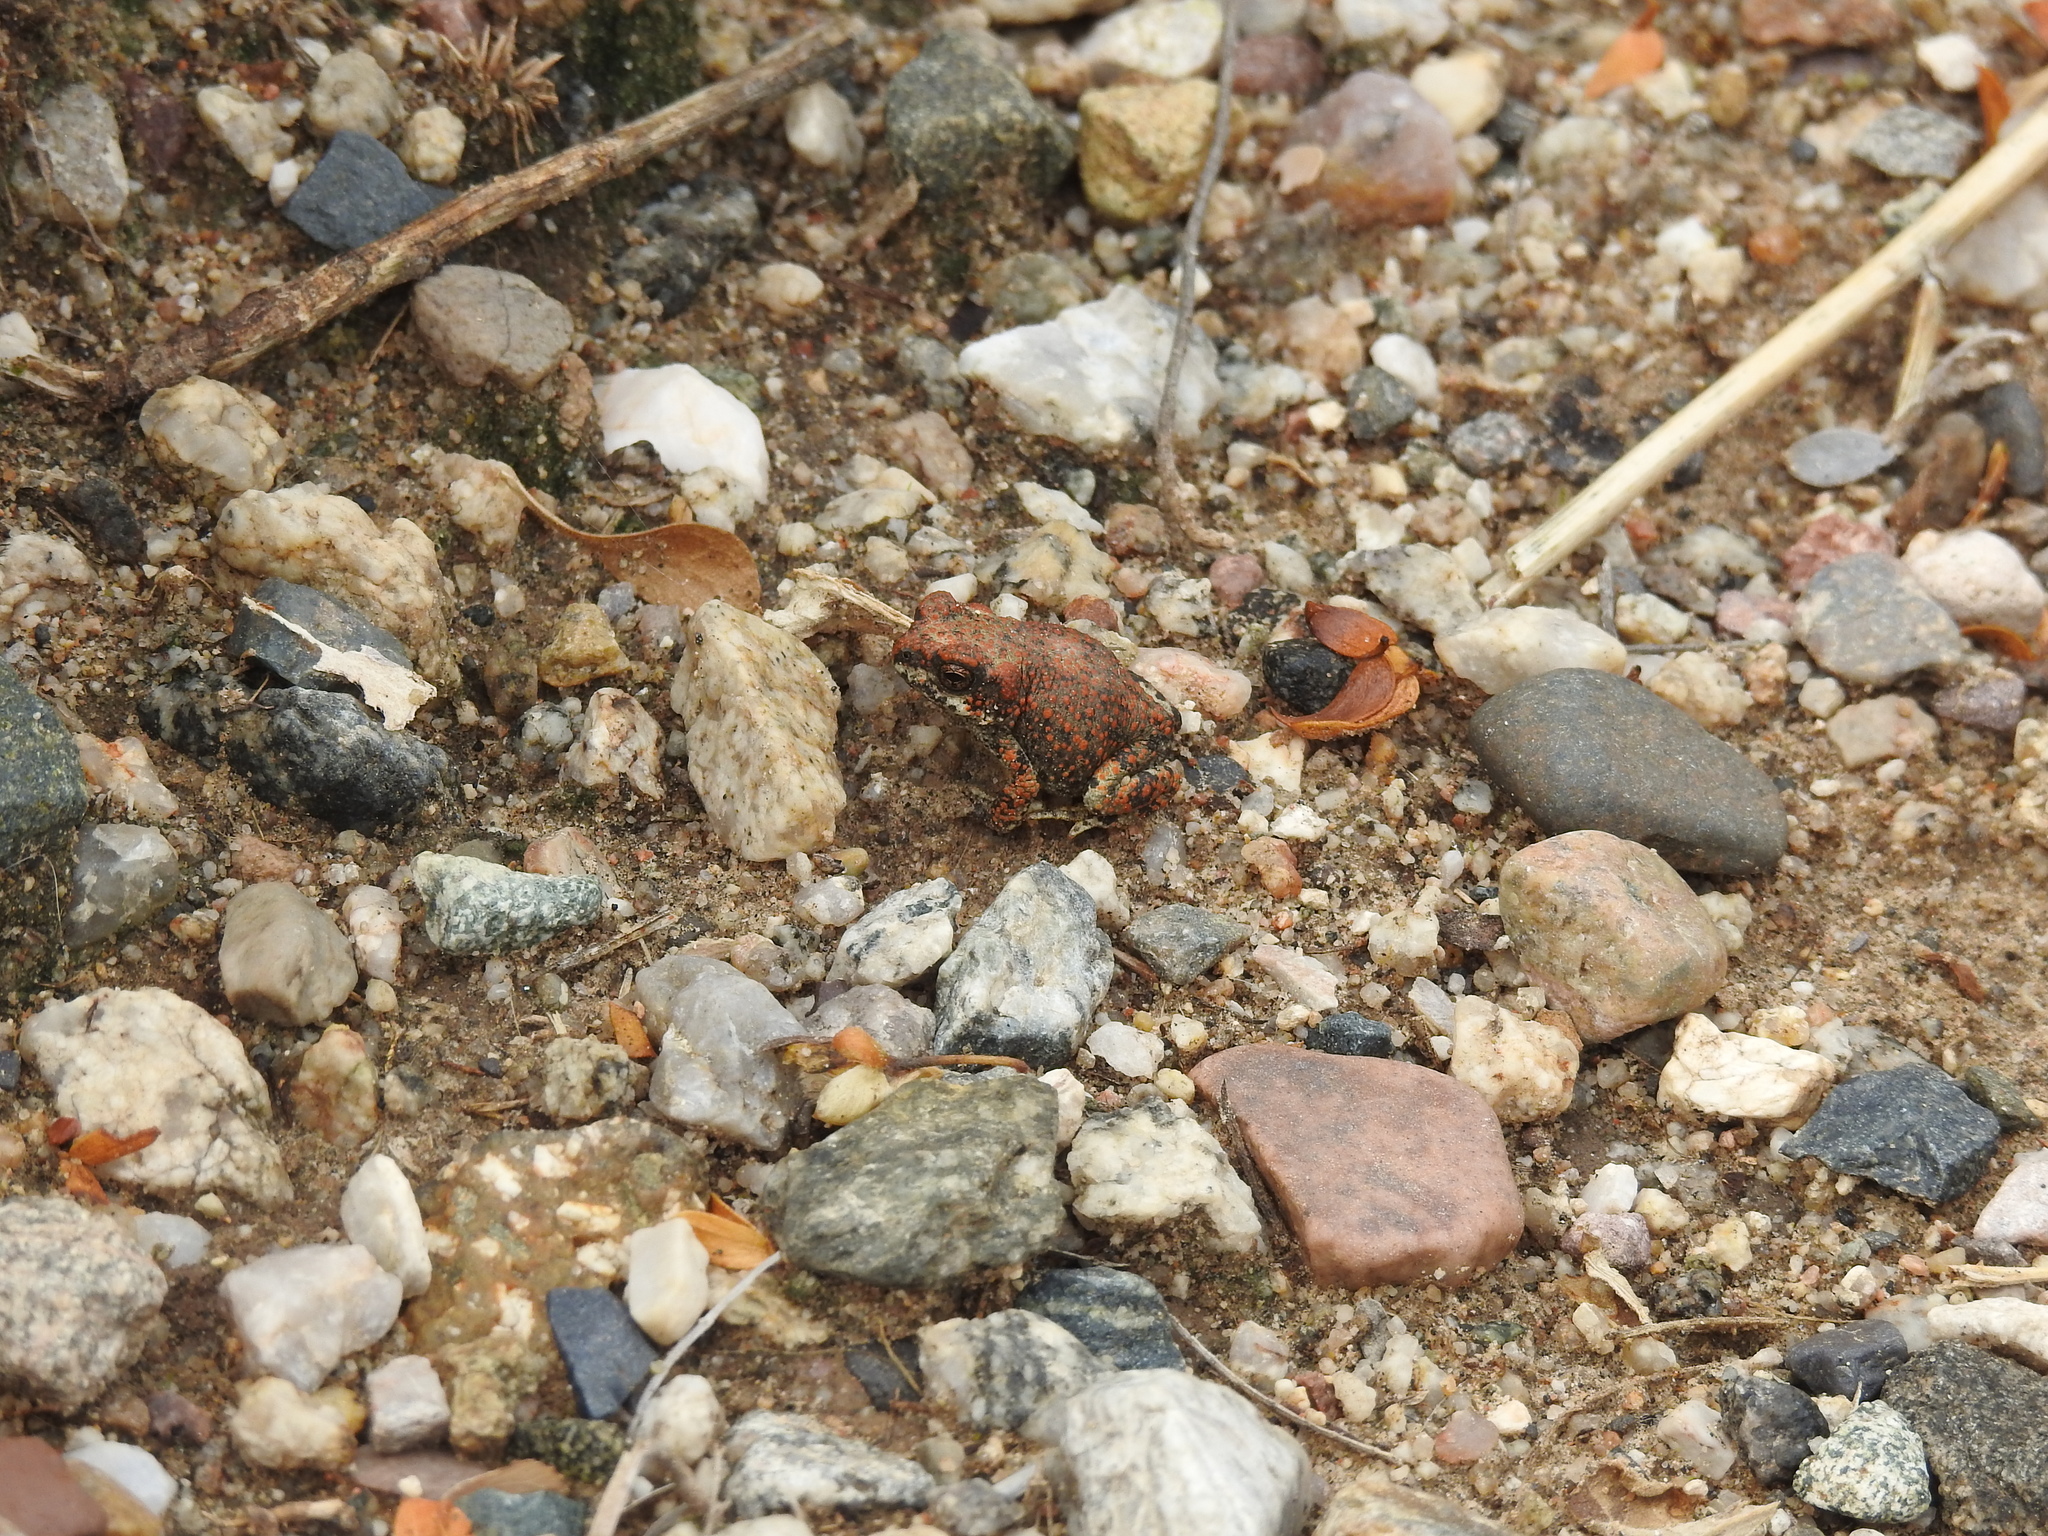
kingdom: Animalia
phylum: Chordata
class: Amphibia
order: Anura
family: Bufonidae
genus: Anaxyrus
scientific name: Anaxyrus punctatus
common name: Red-spotted toad
